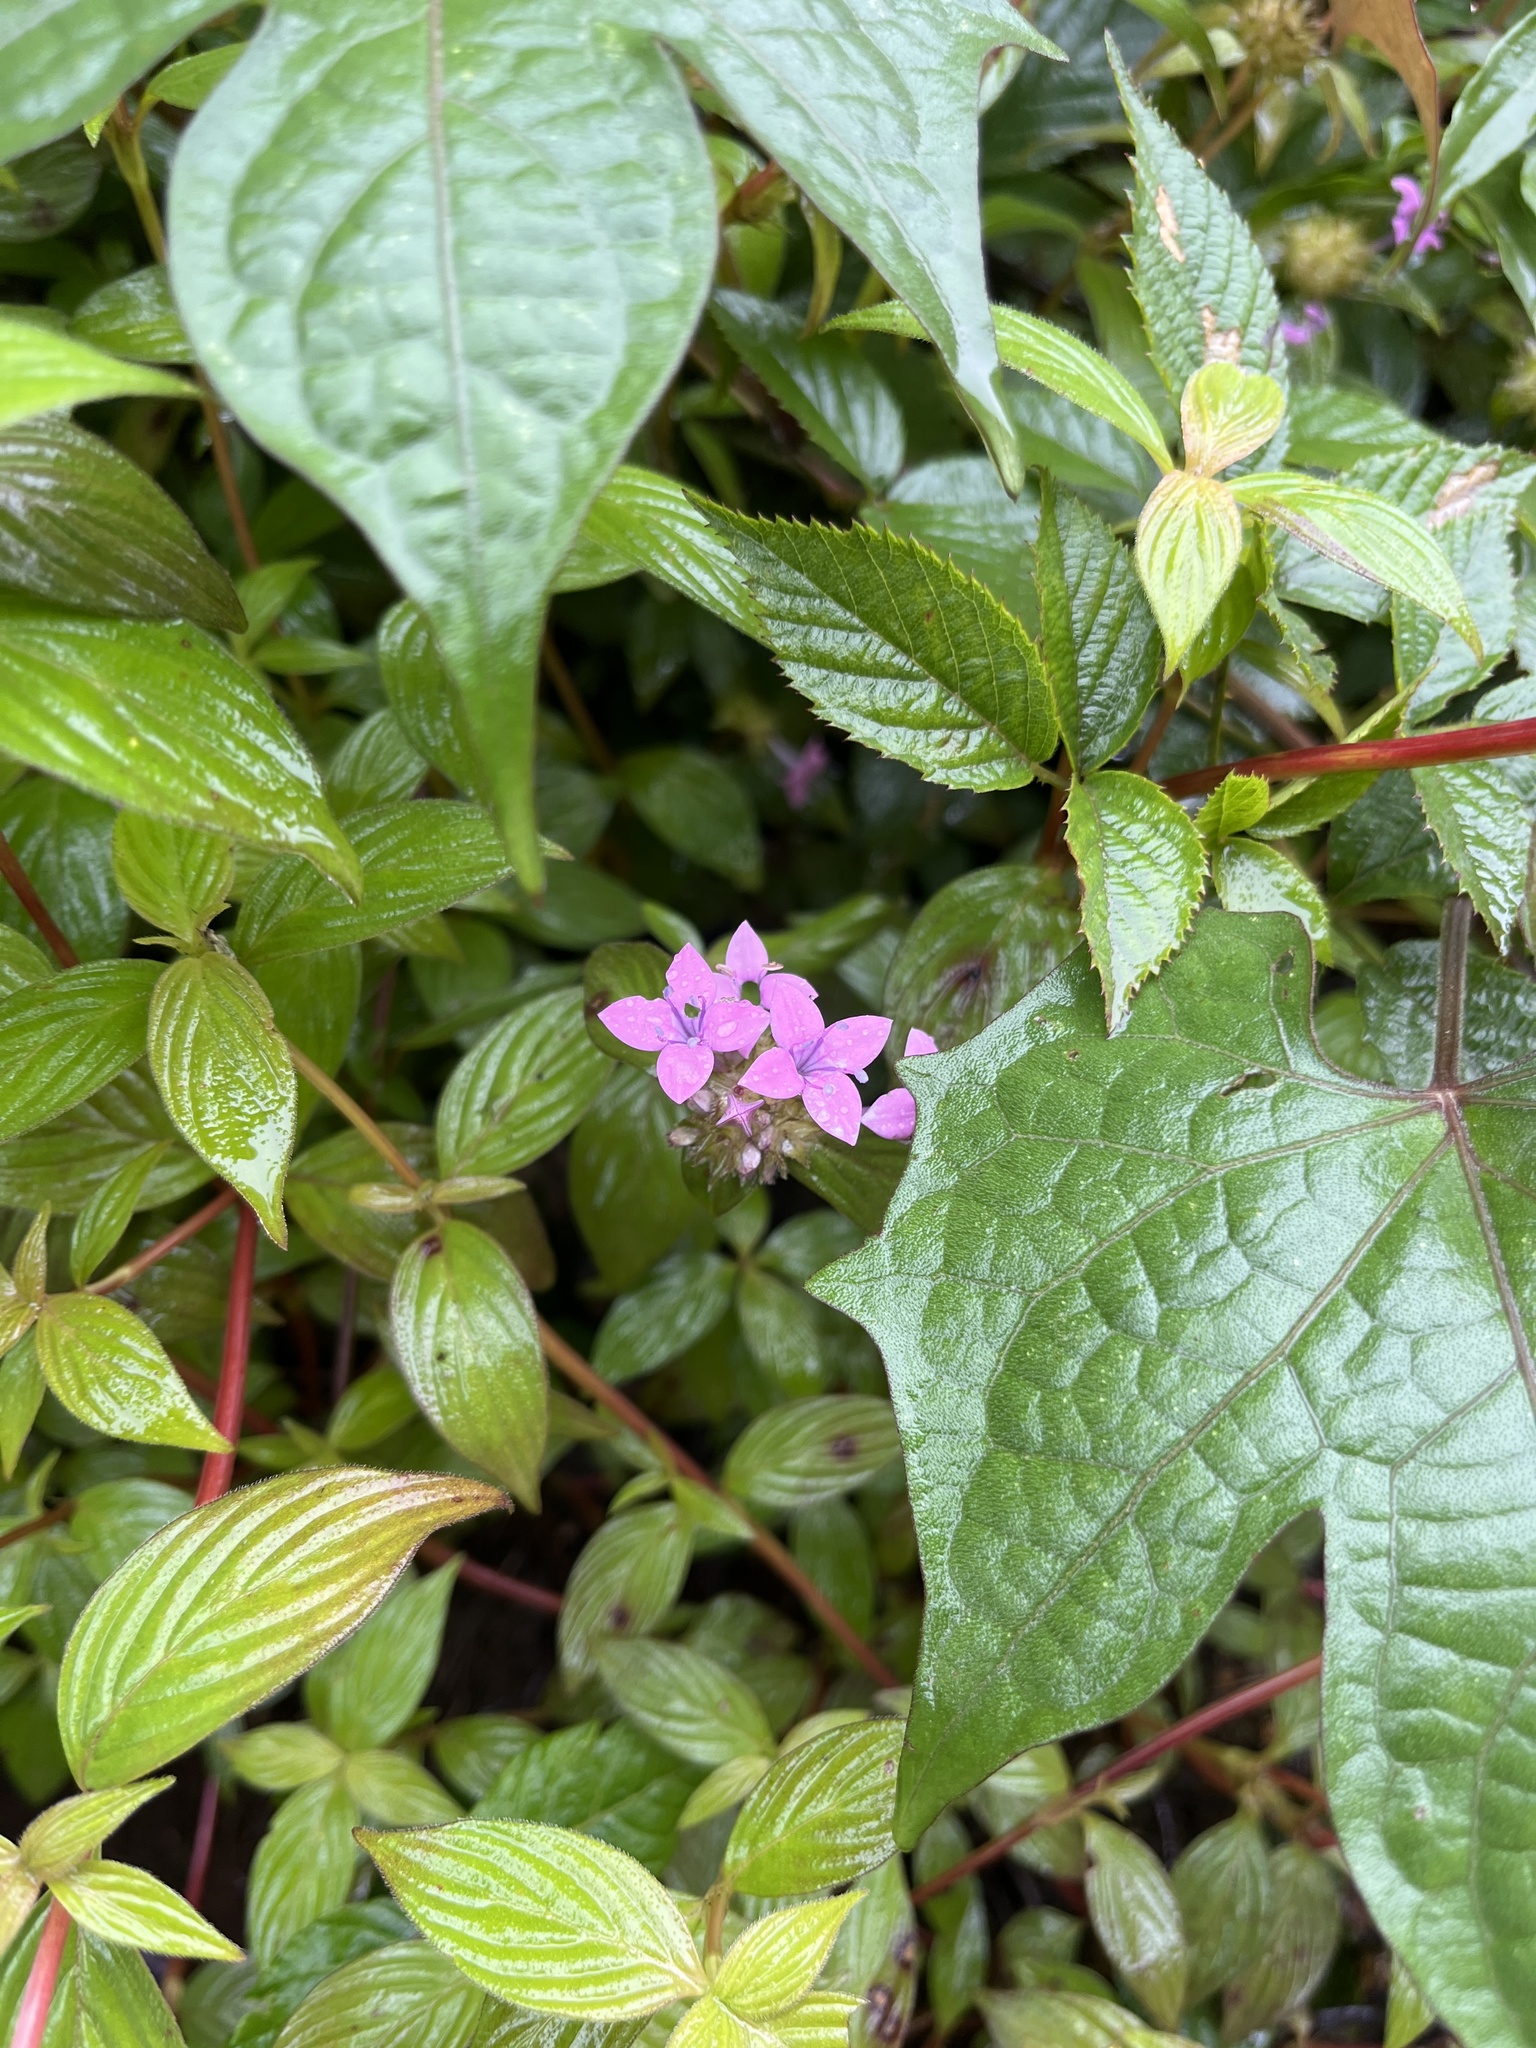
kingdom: Plantae
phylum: Tracheophyta
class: Magnoliopsida
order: Gentianales
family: Rubiaceae
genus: Crusea
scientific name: Crusea hispida
